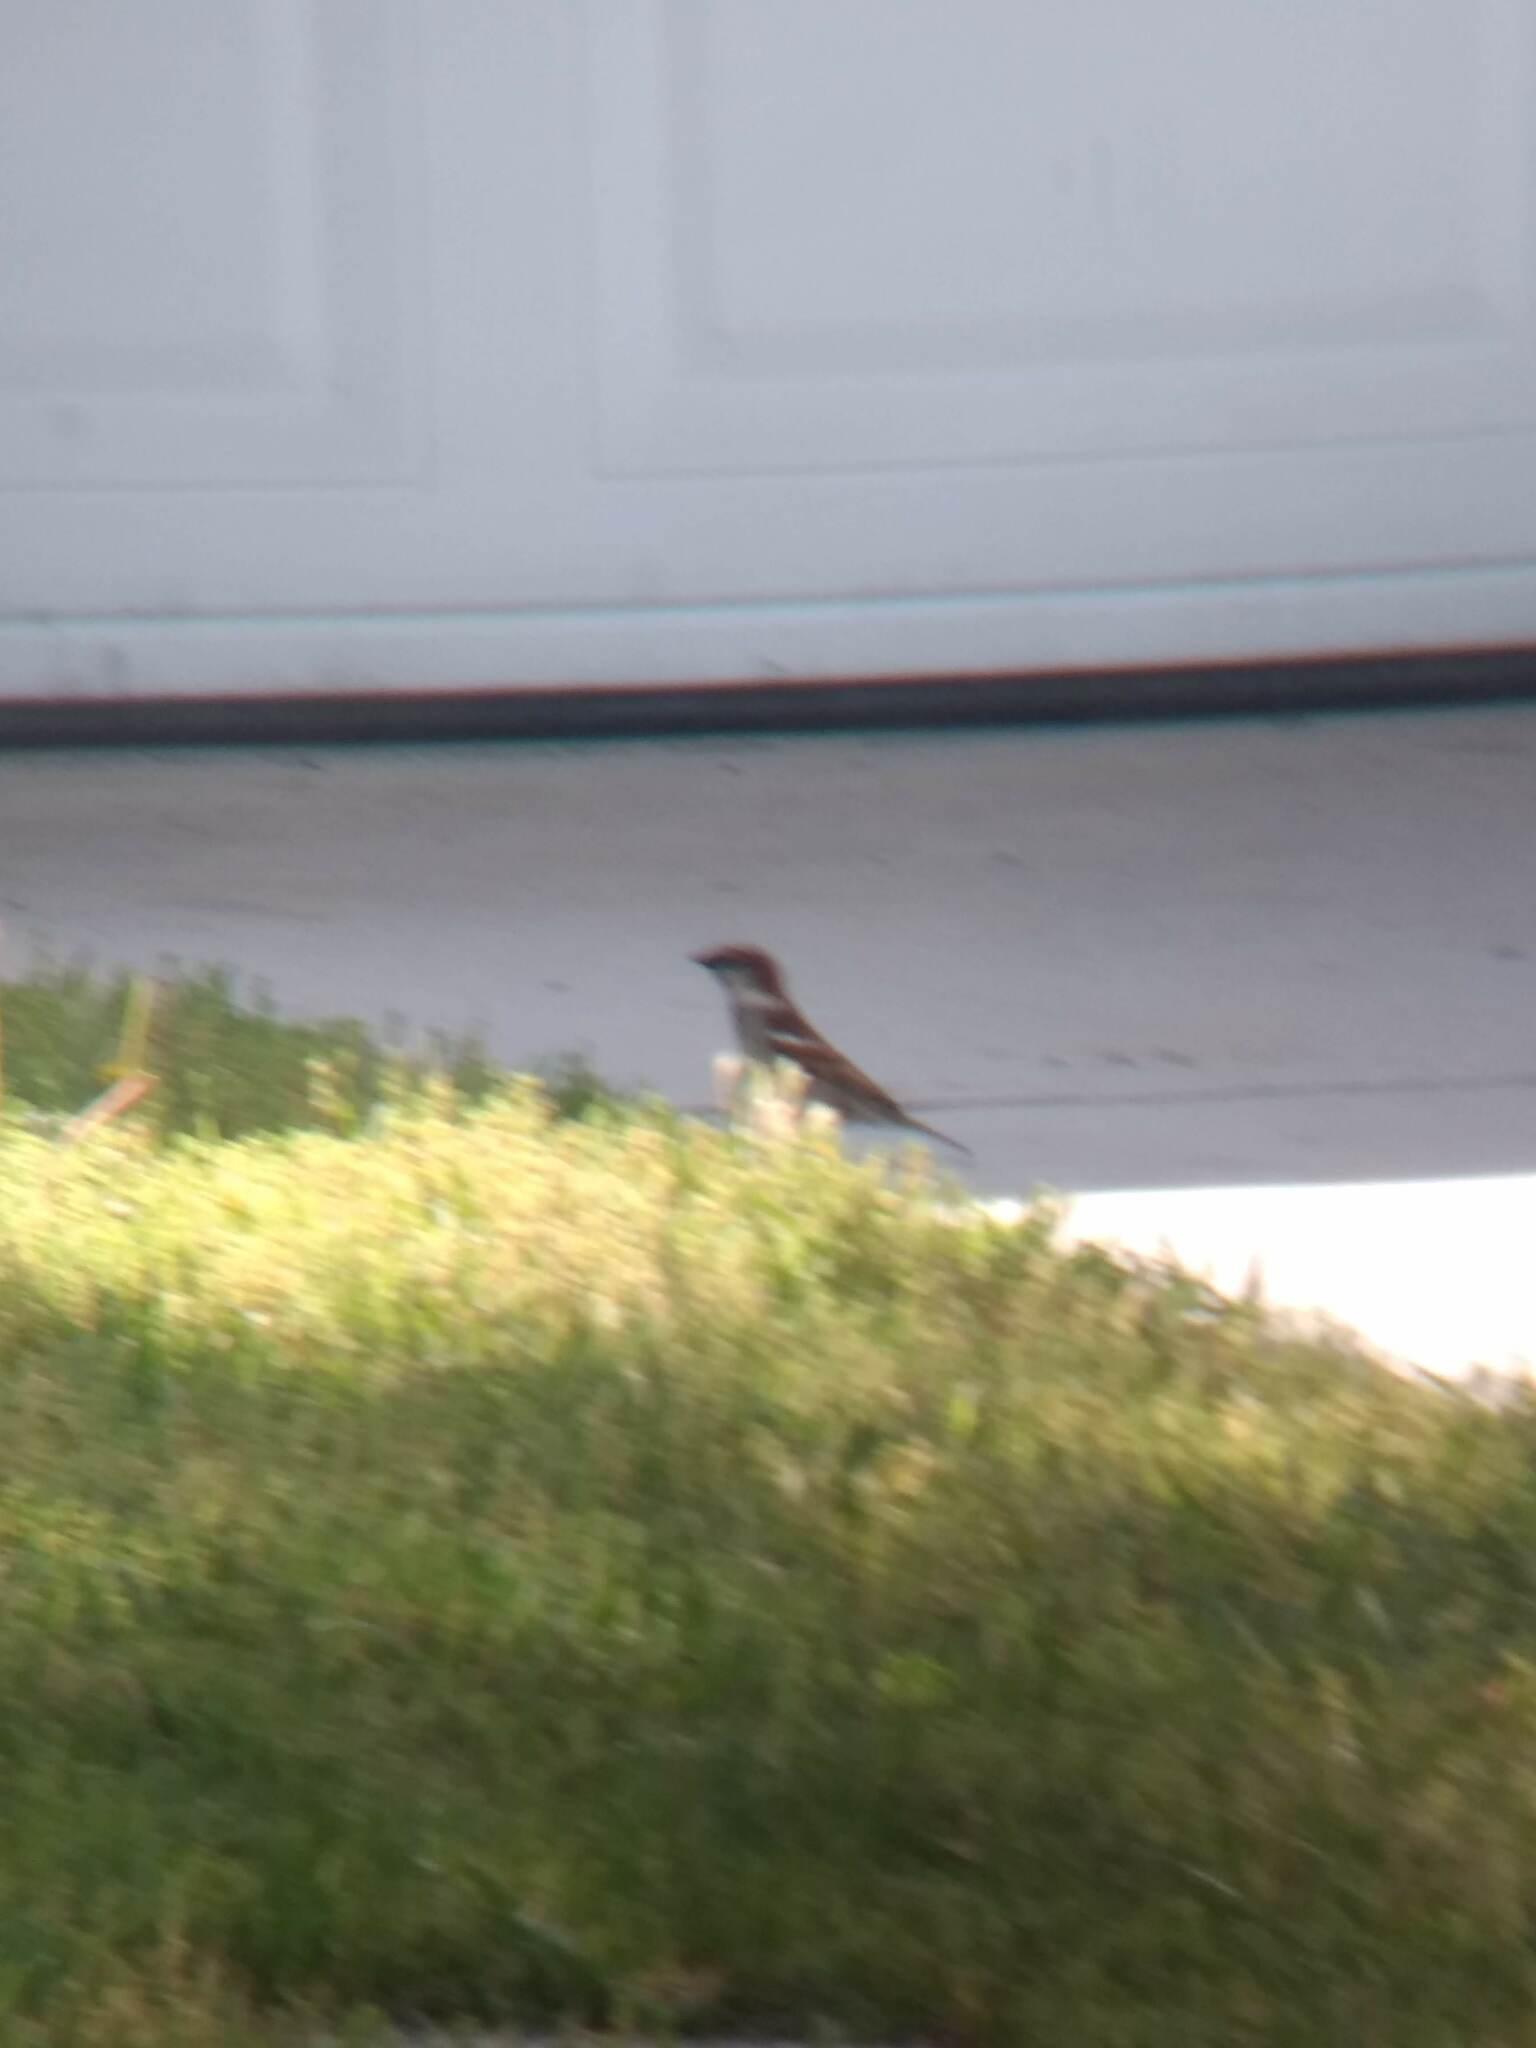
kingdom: Animalia
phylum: Chordata
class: Aves
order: Passeriformes
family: Passeridae
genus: Passer
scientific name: Passer domesticus
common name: House sparrow
